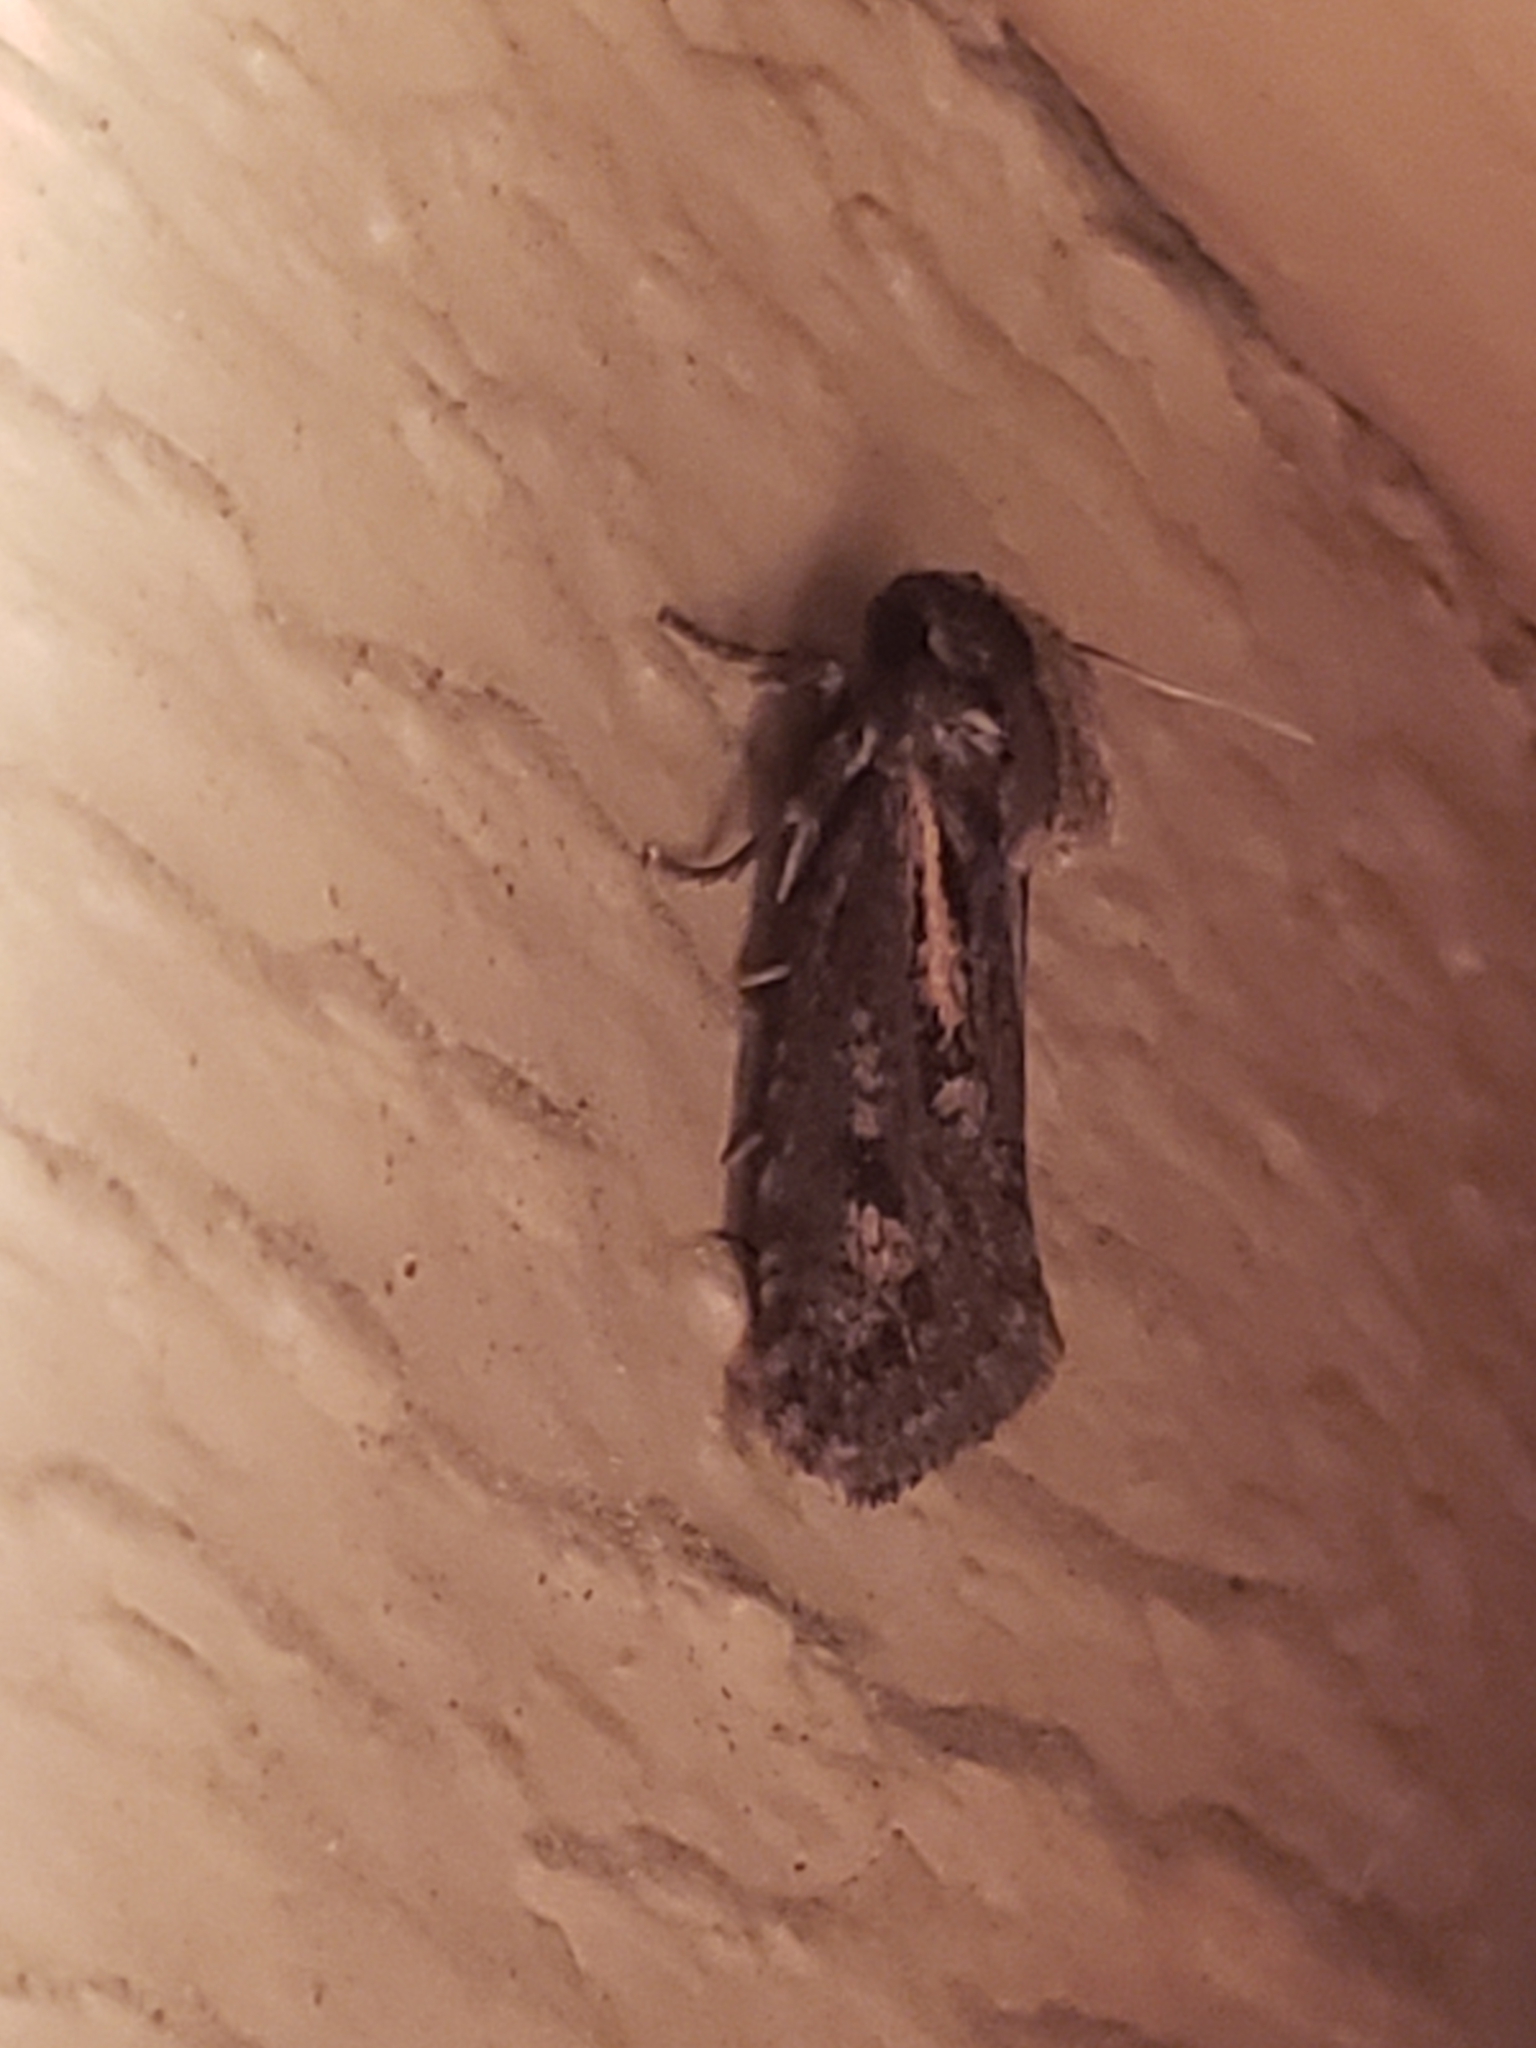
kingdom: Animalia
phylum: Arthropoda
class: Insecta
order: Lepidoptera
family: Tineidae
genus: Acrolophus
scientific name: Acrolophus popeanella
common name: Clemens' grass tubeworm moth
